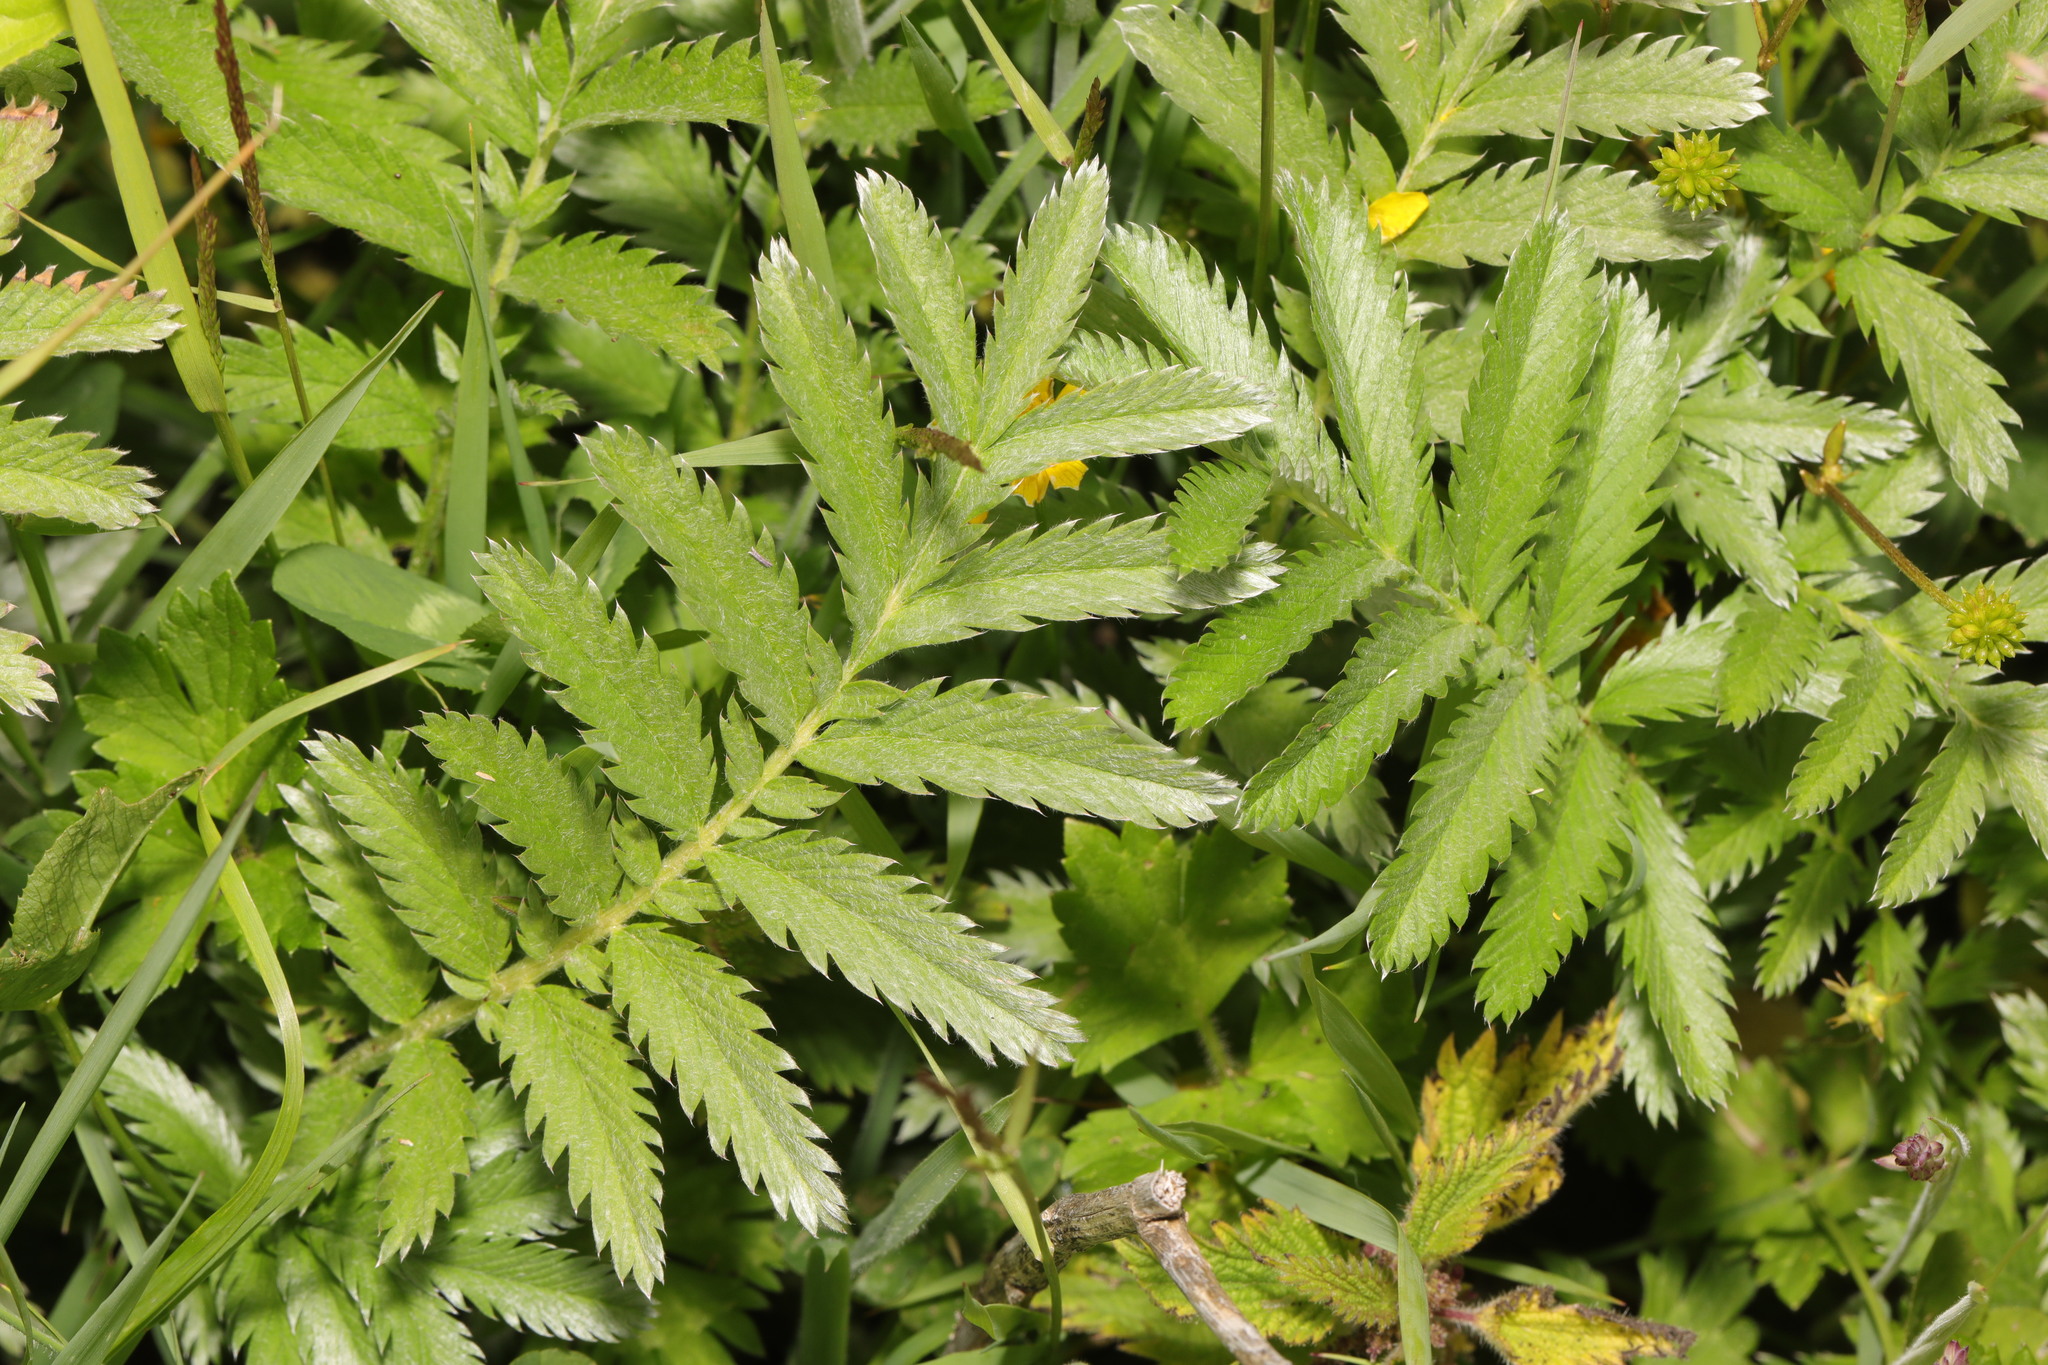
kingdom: Plantae
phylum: Tracheophyta
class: Magnoliopsida
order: Rosales
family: Rosaceae
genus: Argentina
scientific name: Argentina anserina
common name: Common silverweed
